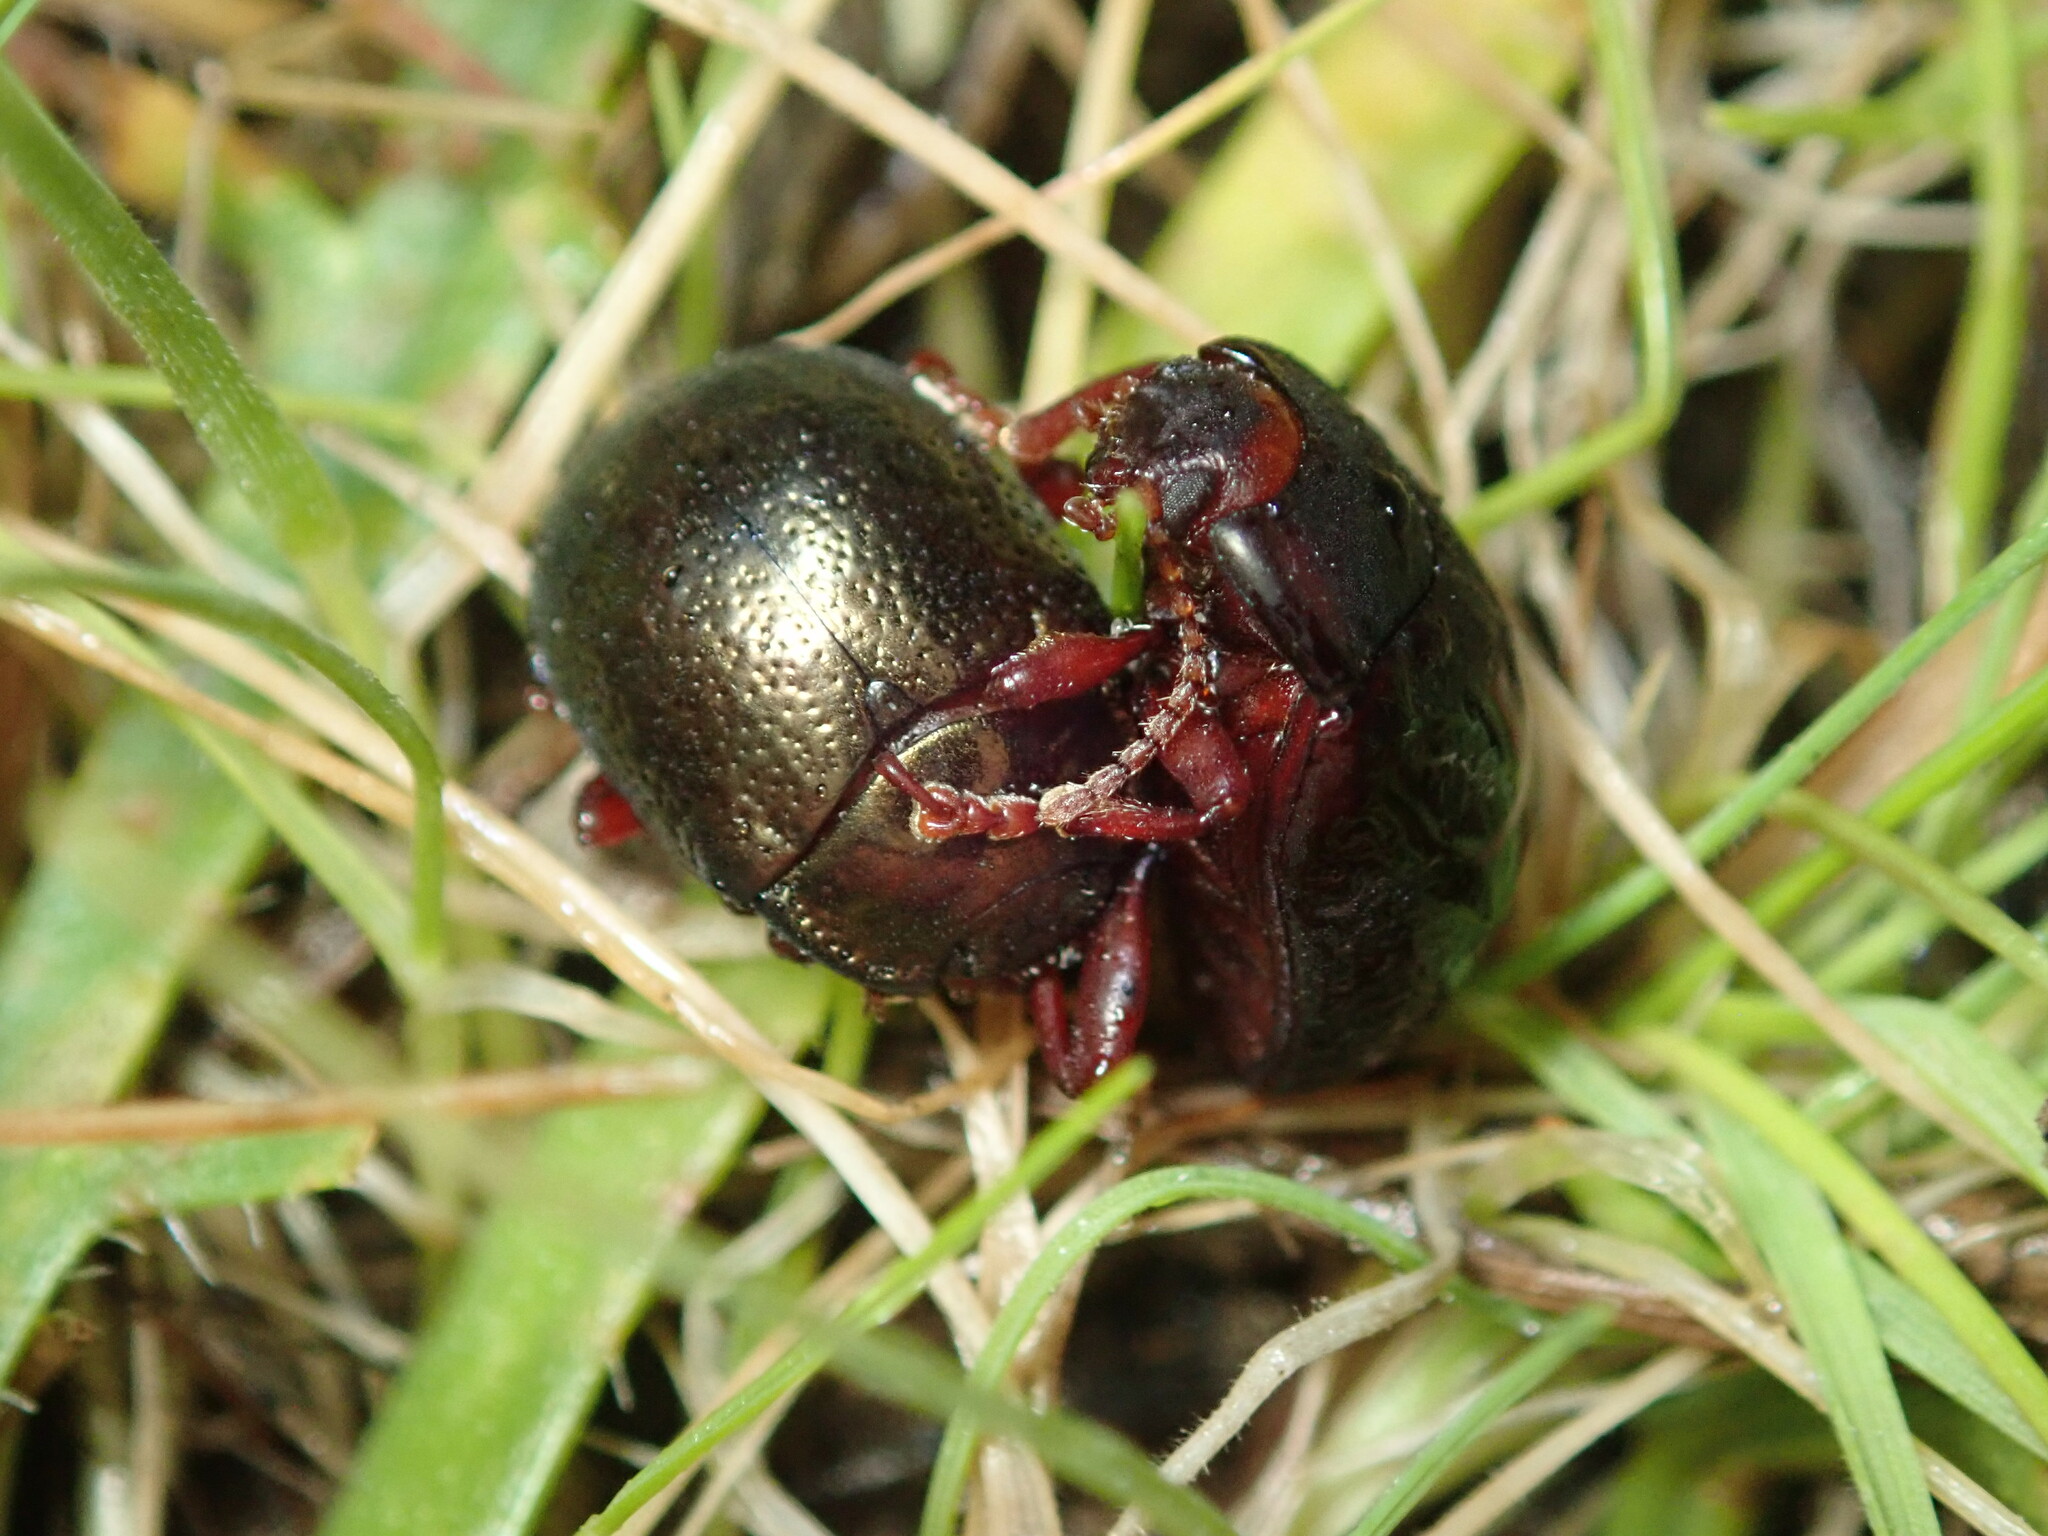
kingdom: Animalia
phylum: Arthropoda
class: Insecta
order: Coleoptera
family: Chrysomelidae
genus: Chrysolina
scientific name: Chrysolina bankii
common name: Leaf beetle
